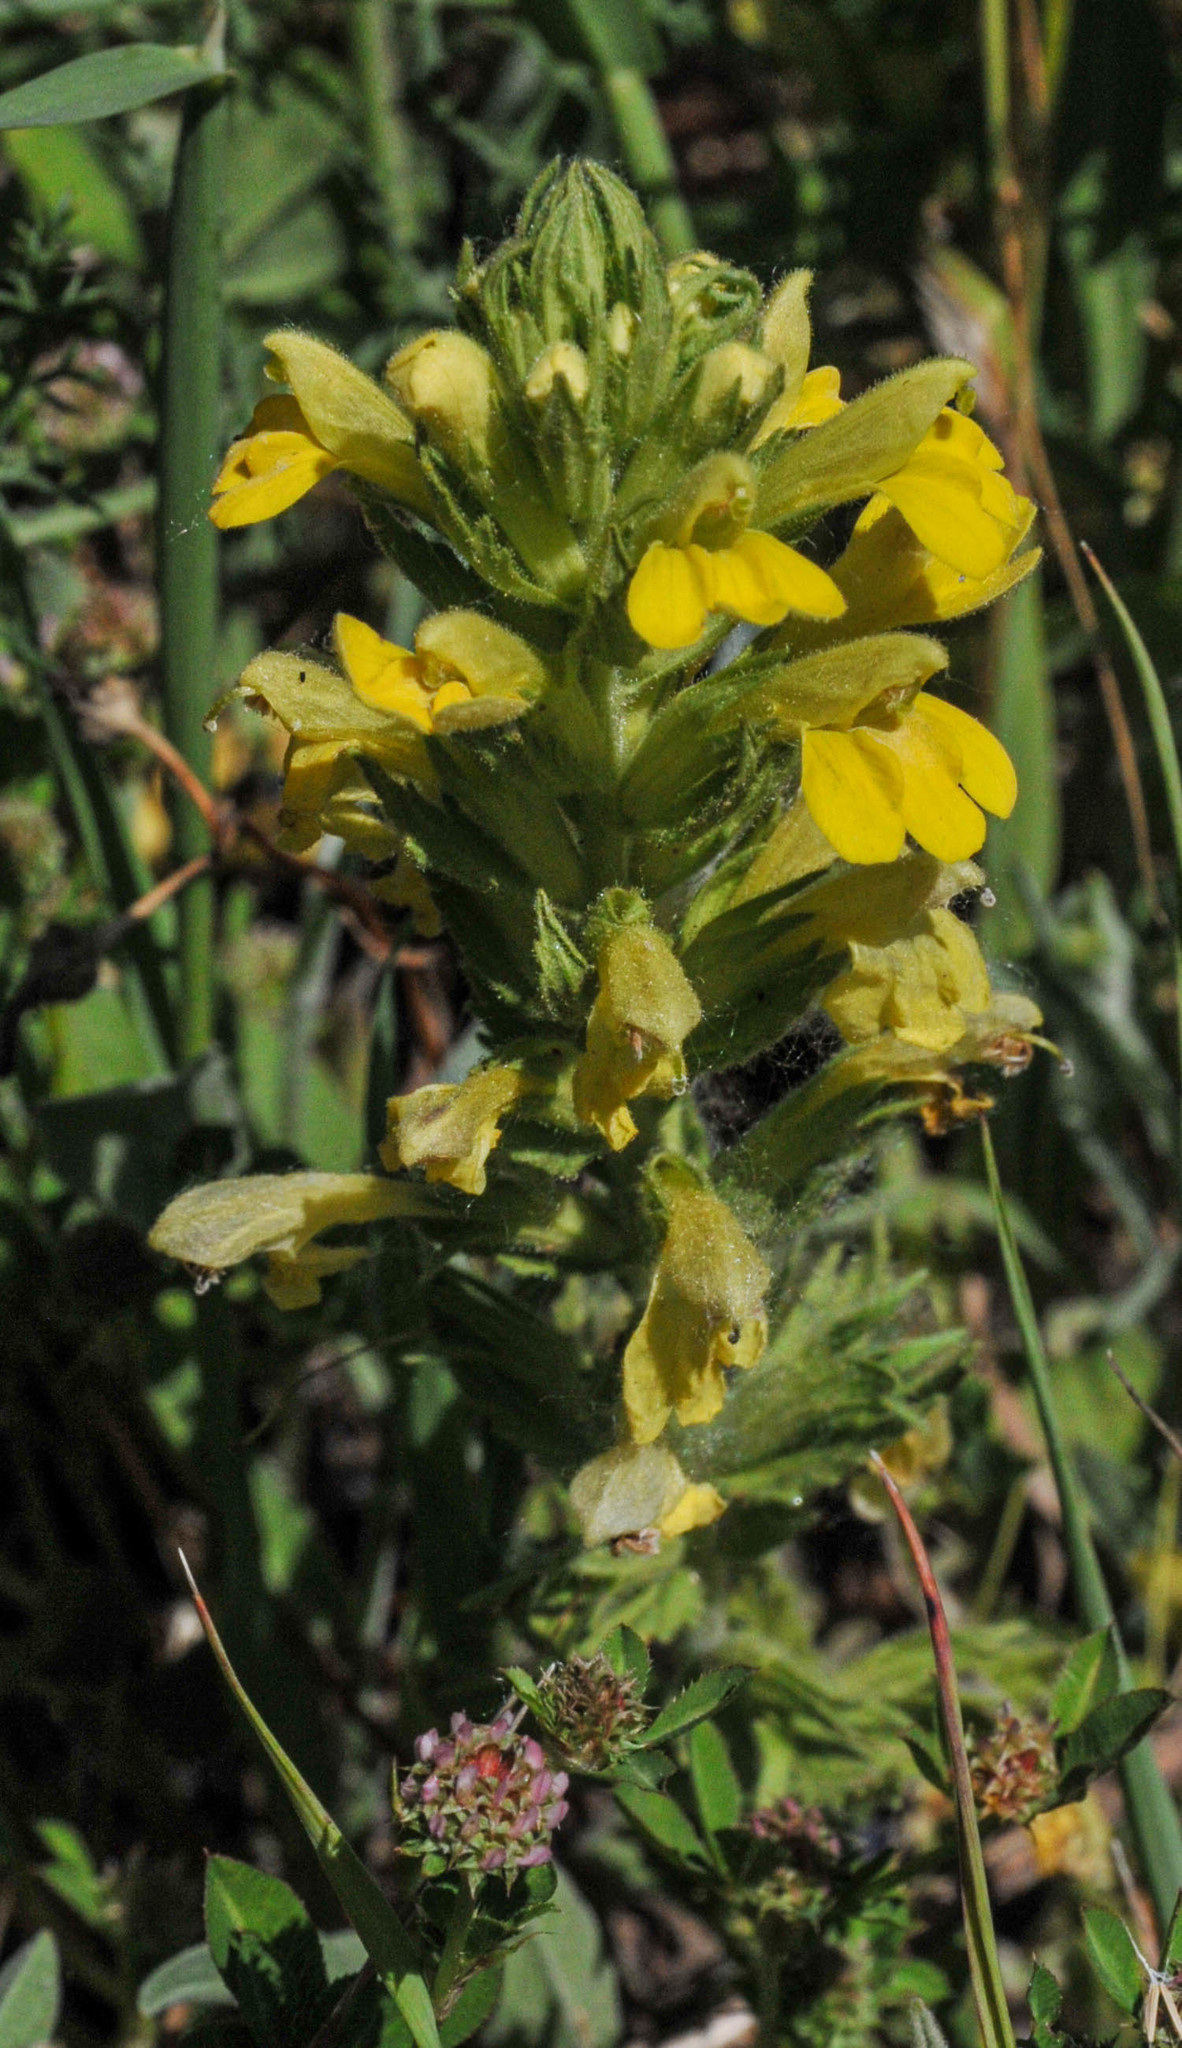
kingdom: Plantae
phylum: Tracheophyta
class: Magnoliopsida
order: Lamiales
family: Orobanchaceae
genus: Bellardia
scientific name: Bellardia viscosa
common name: Sticky parentucellia
